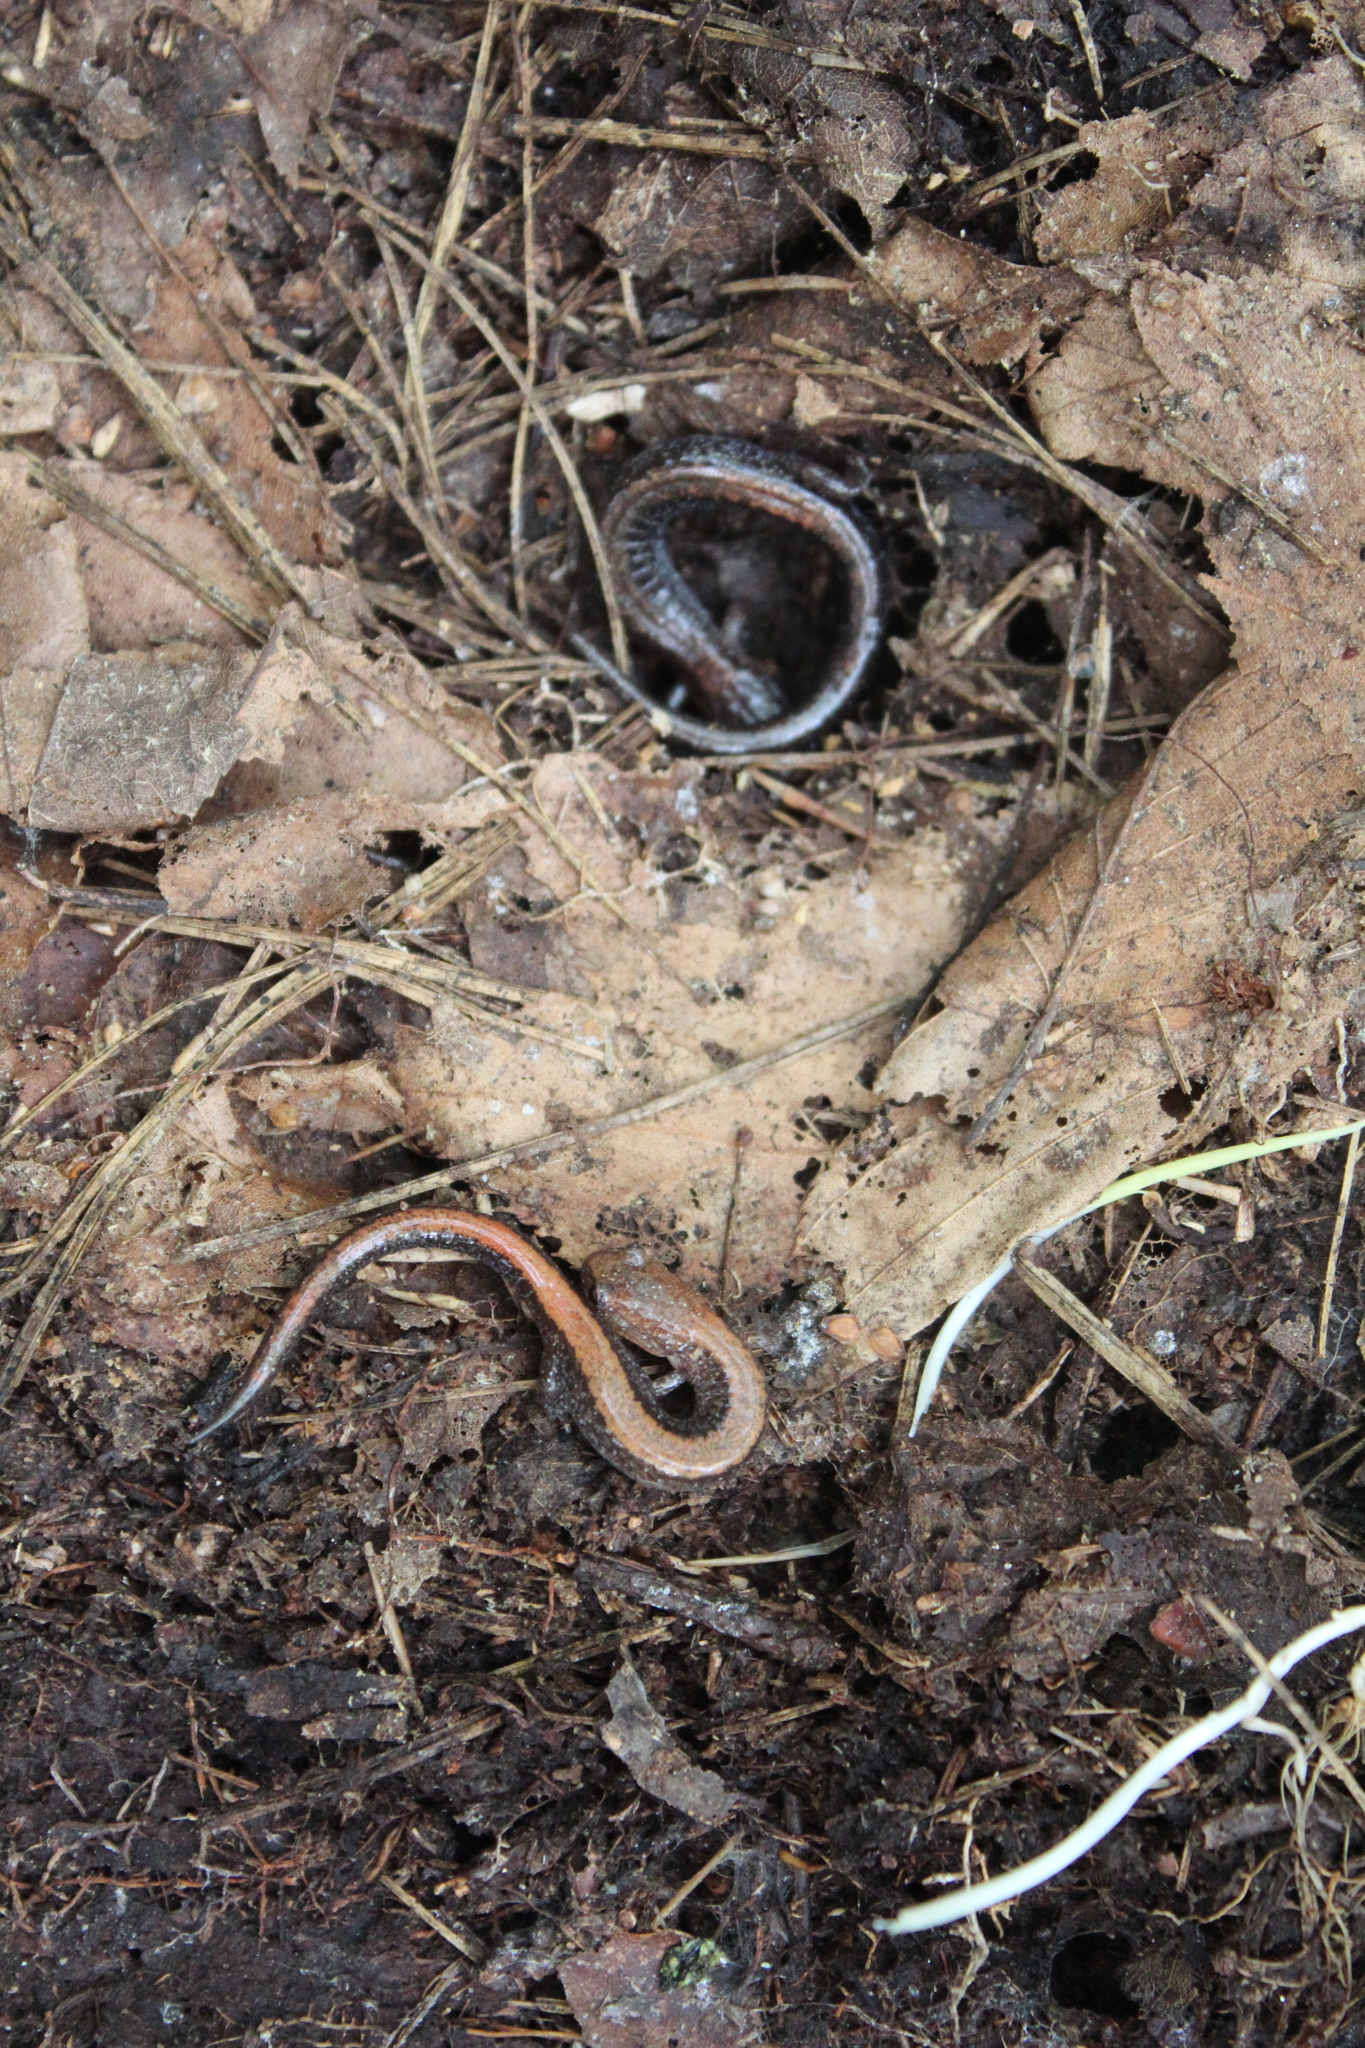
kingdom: Animalia
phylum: Chordata
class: Amphibia
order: Caudata
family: Plethodontidae
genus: Plethodon
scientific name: Plethodon cinereus
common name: Redback salamander
